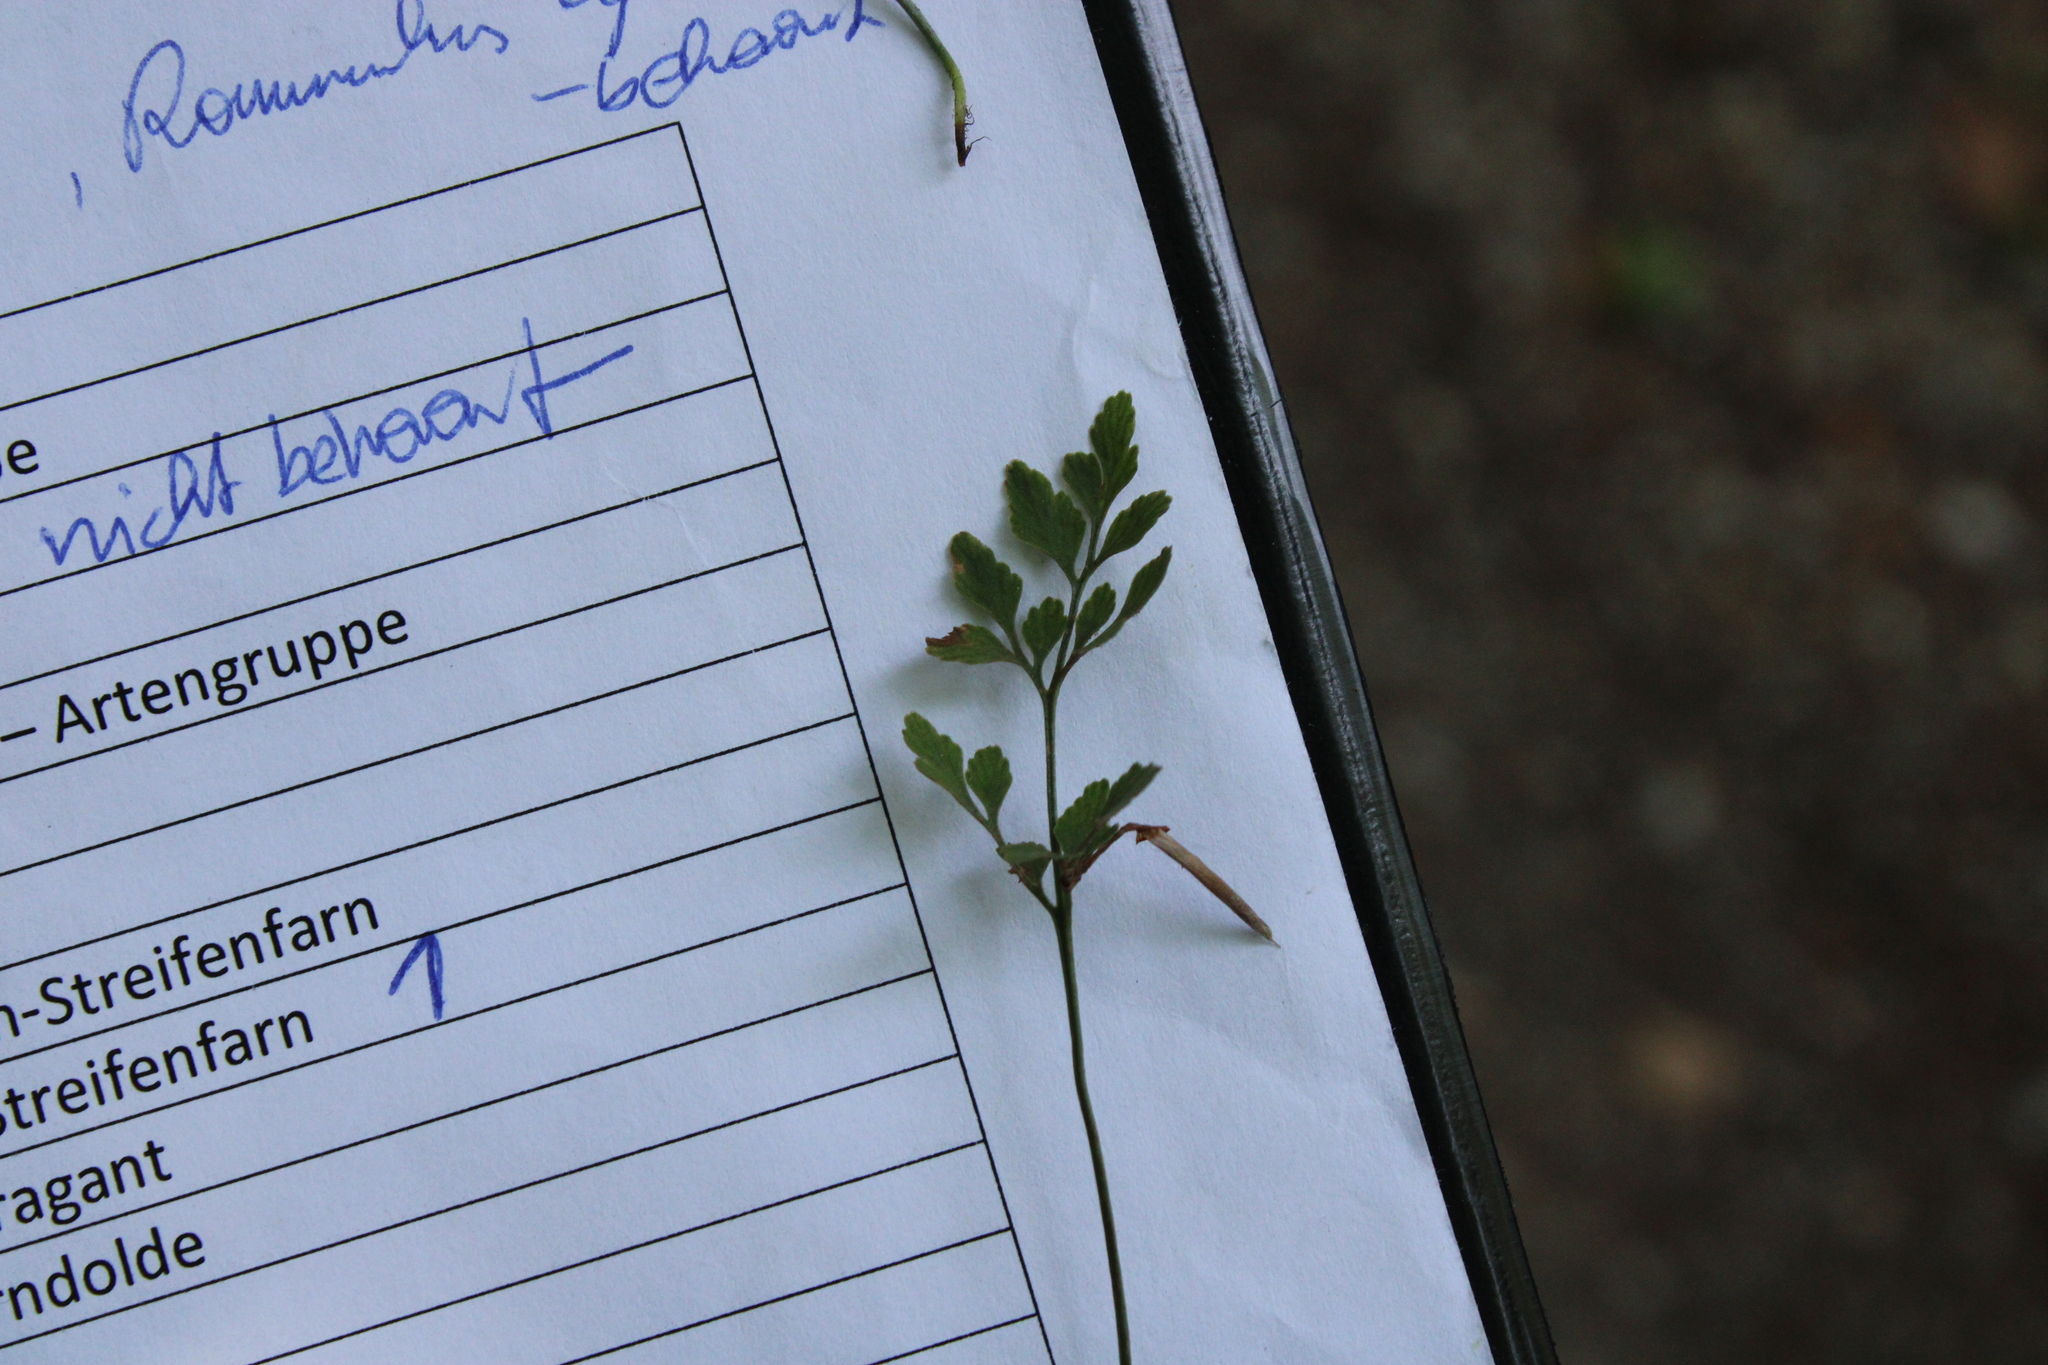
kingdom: Plantae
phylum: Tracheophyta
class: Polypodiopsida
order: Polypodiales
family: Aspleniaceae
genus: Asplenium
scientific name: Asplenium ruta-muraria
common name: Wall-rue
